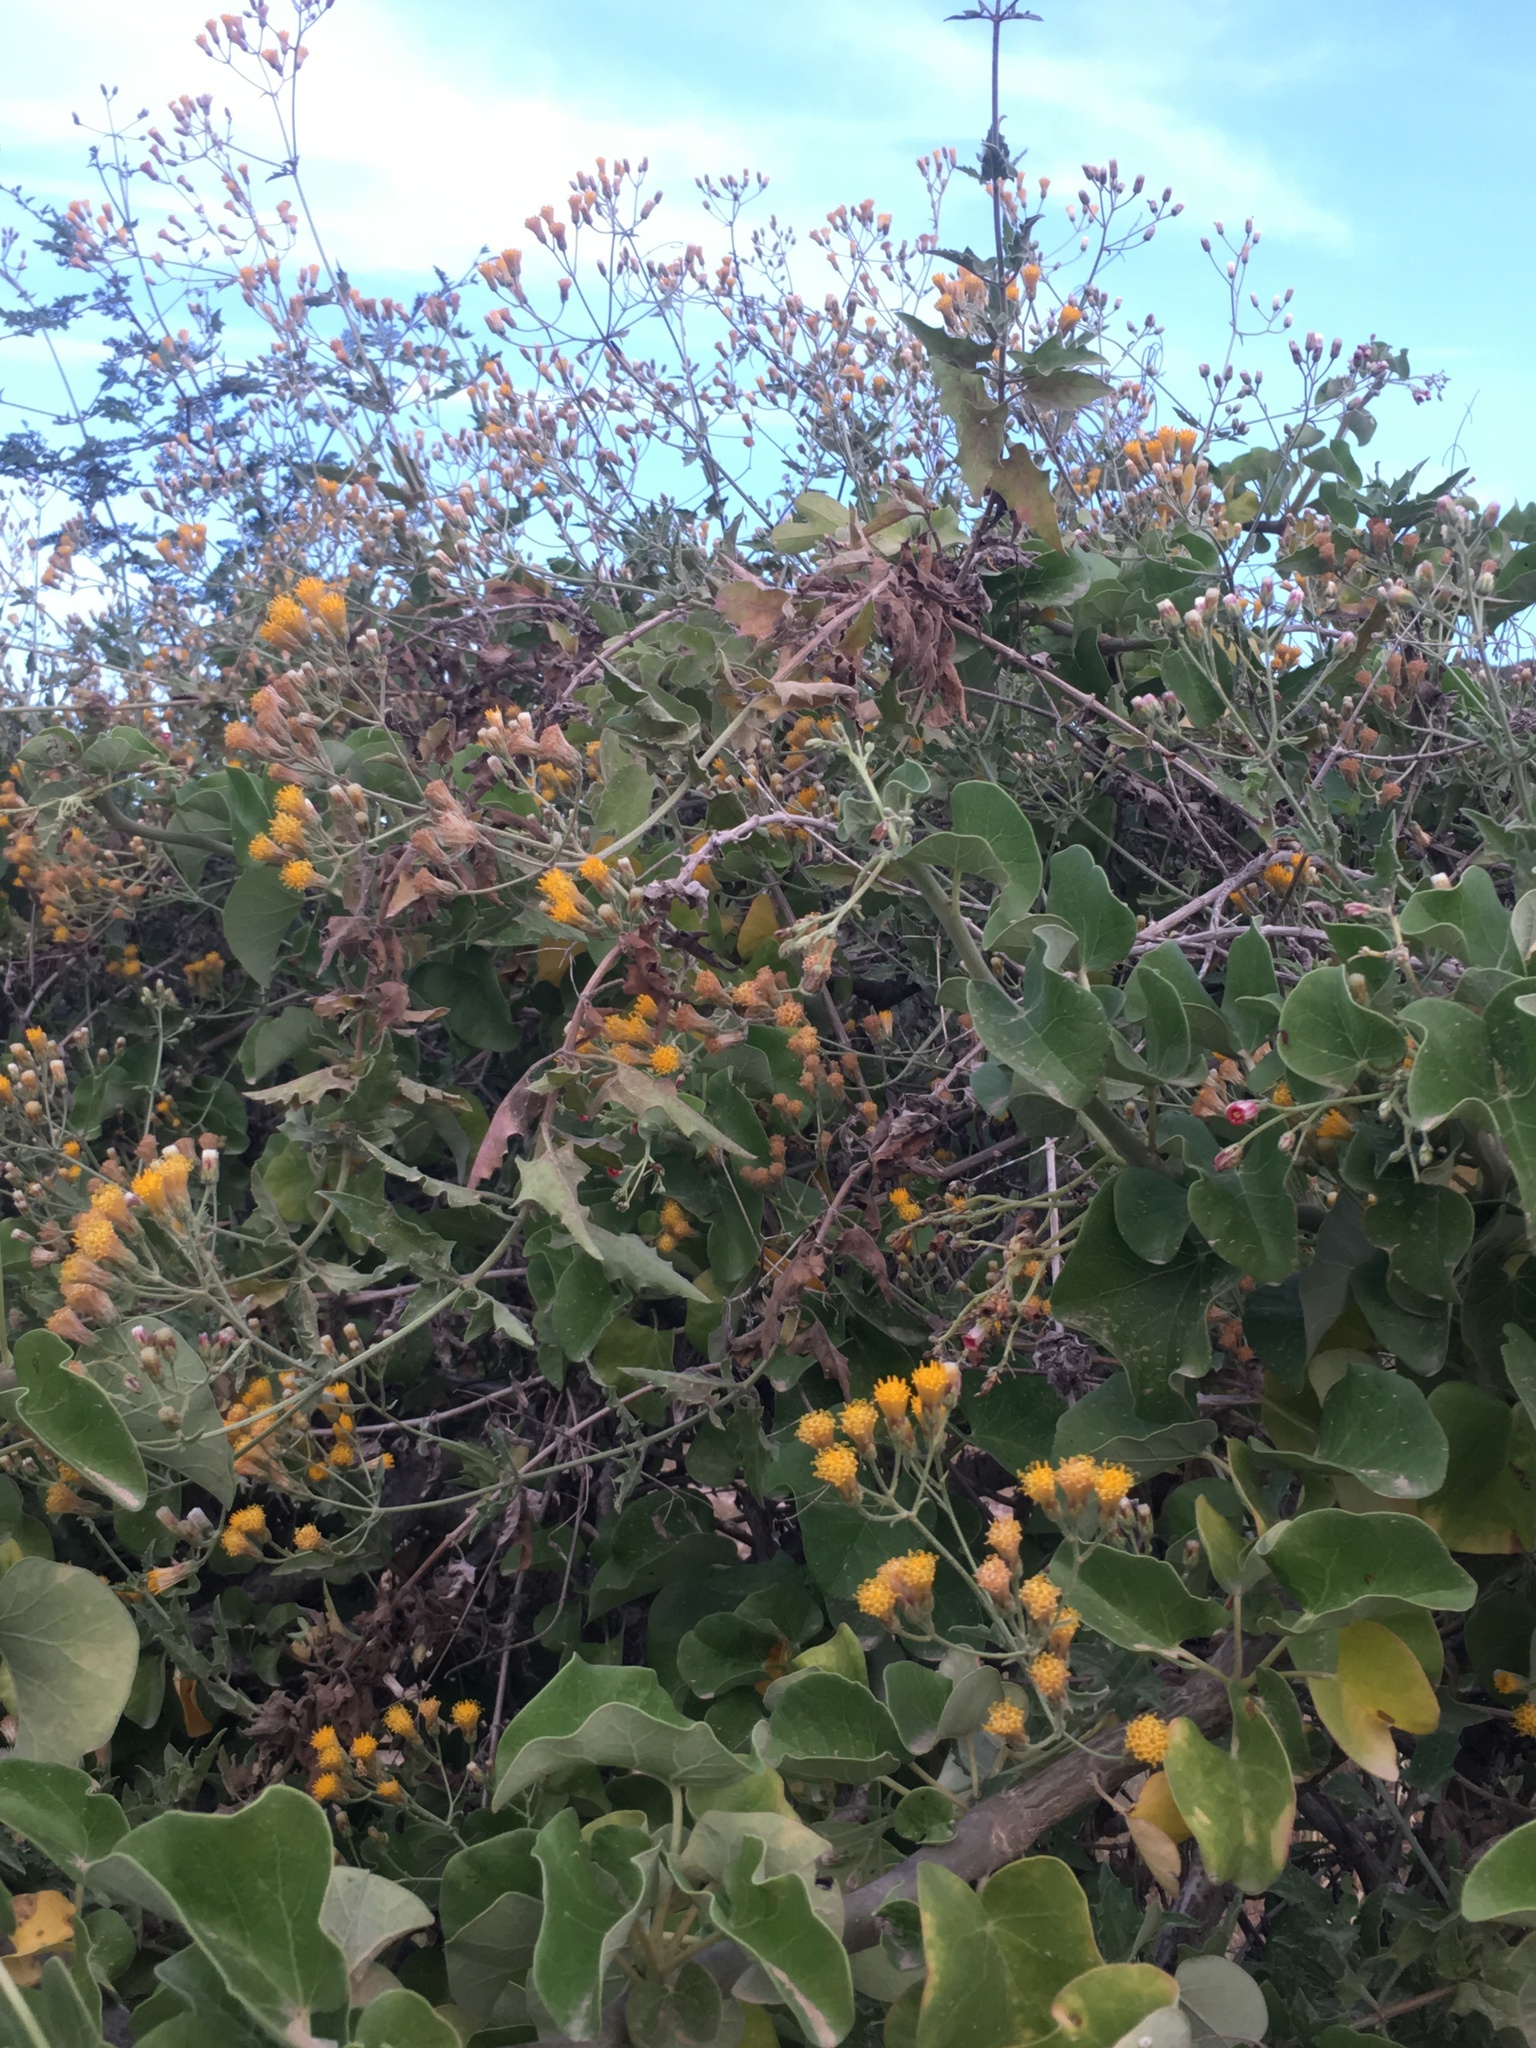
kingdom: Plantae
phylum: Tracheophyta
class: Magnoliopsida
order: Asterales
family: Asteraceae
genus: Bebbia
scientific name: Bebbia atriplicifolia
